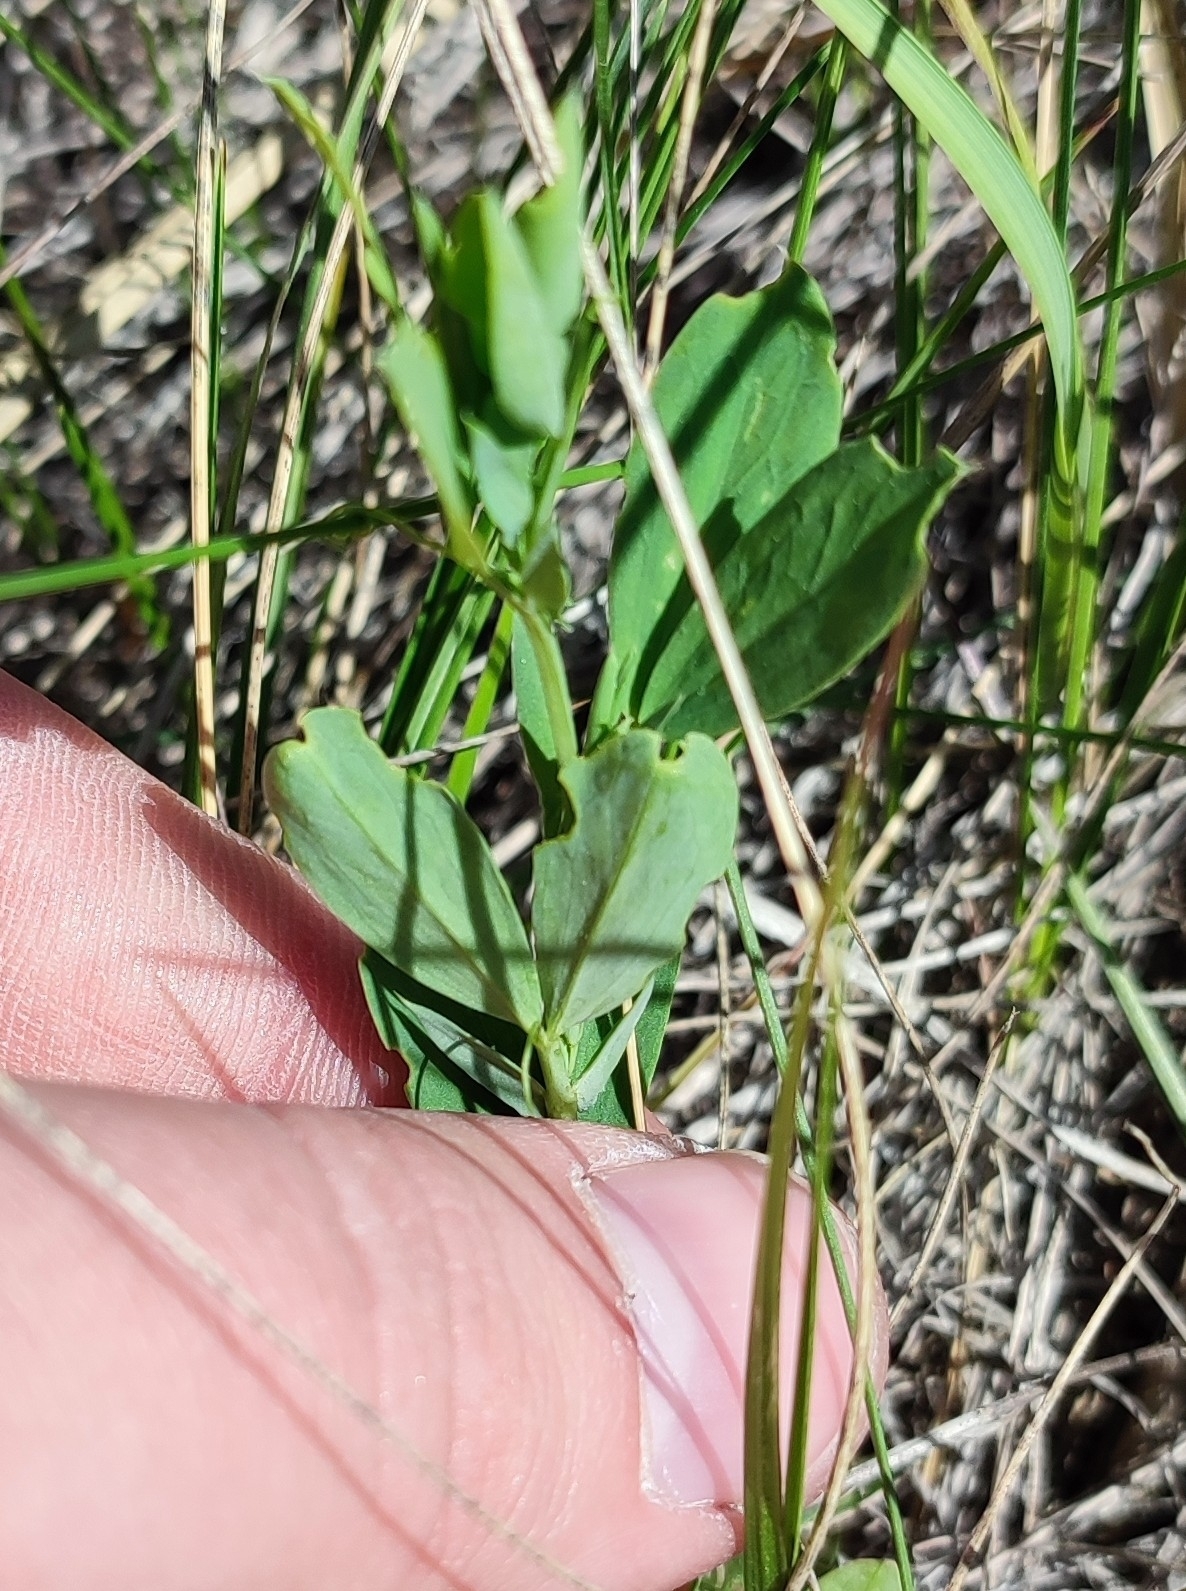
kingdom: Plantae
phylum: Tracheophyta
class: Magnoliopsida
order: Fabales
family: Fabaceae
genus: Lathyrus
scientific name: Lathyrus tuberosus
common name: Tuberous pea
